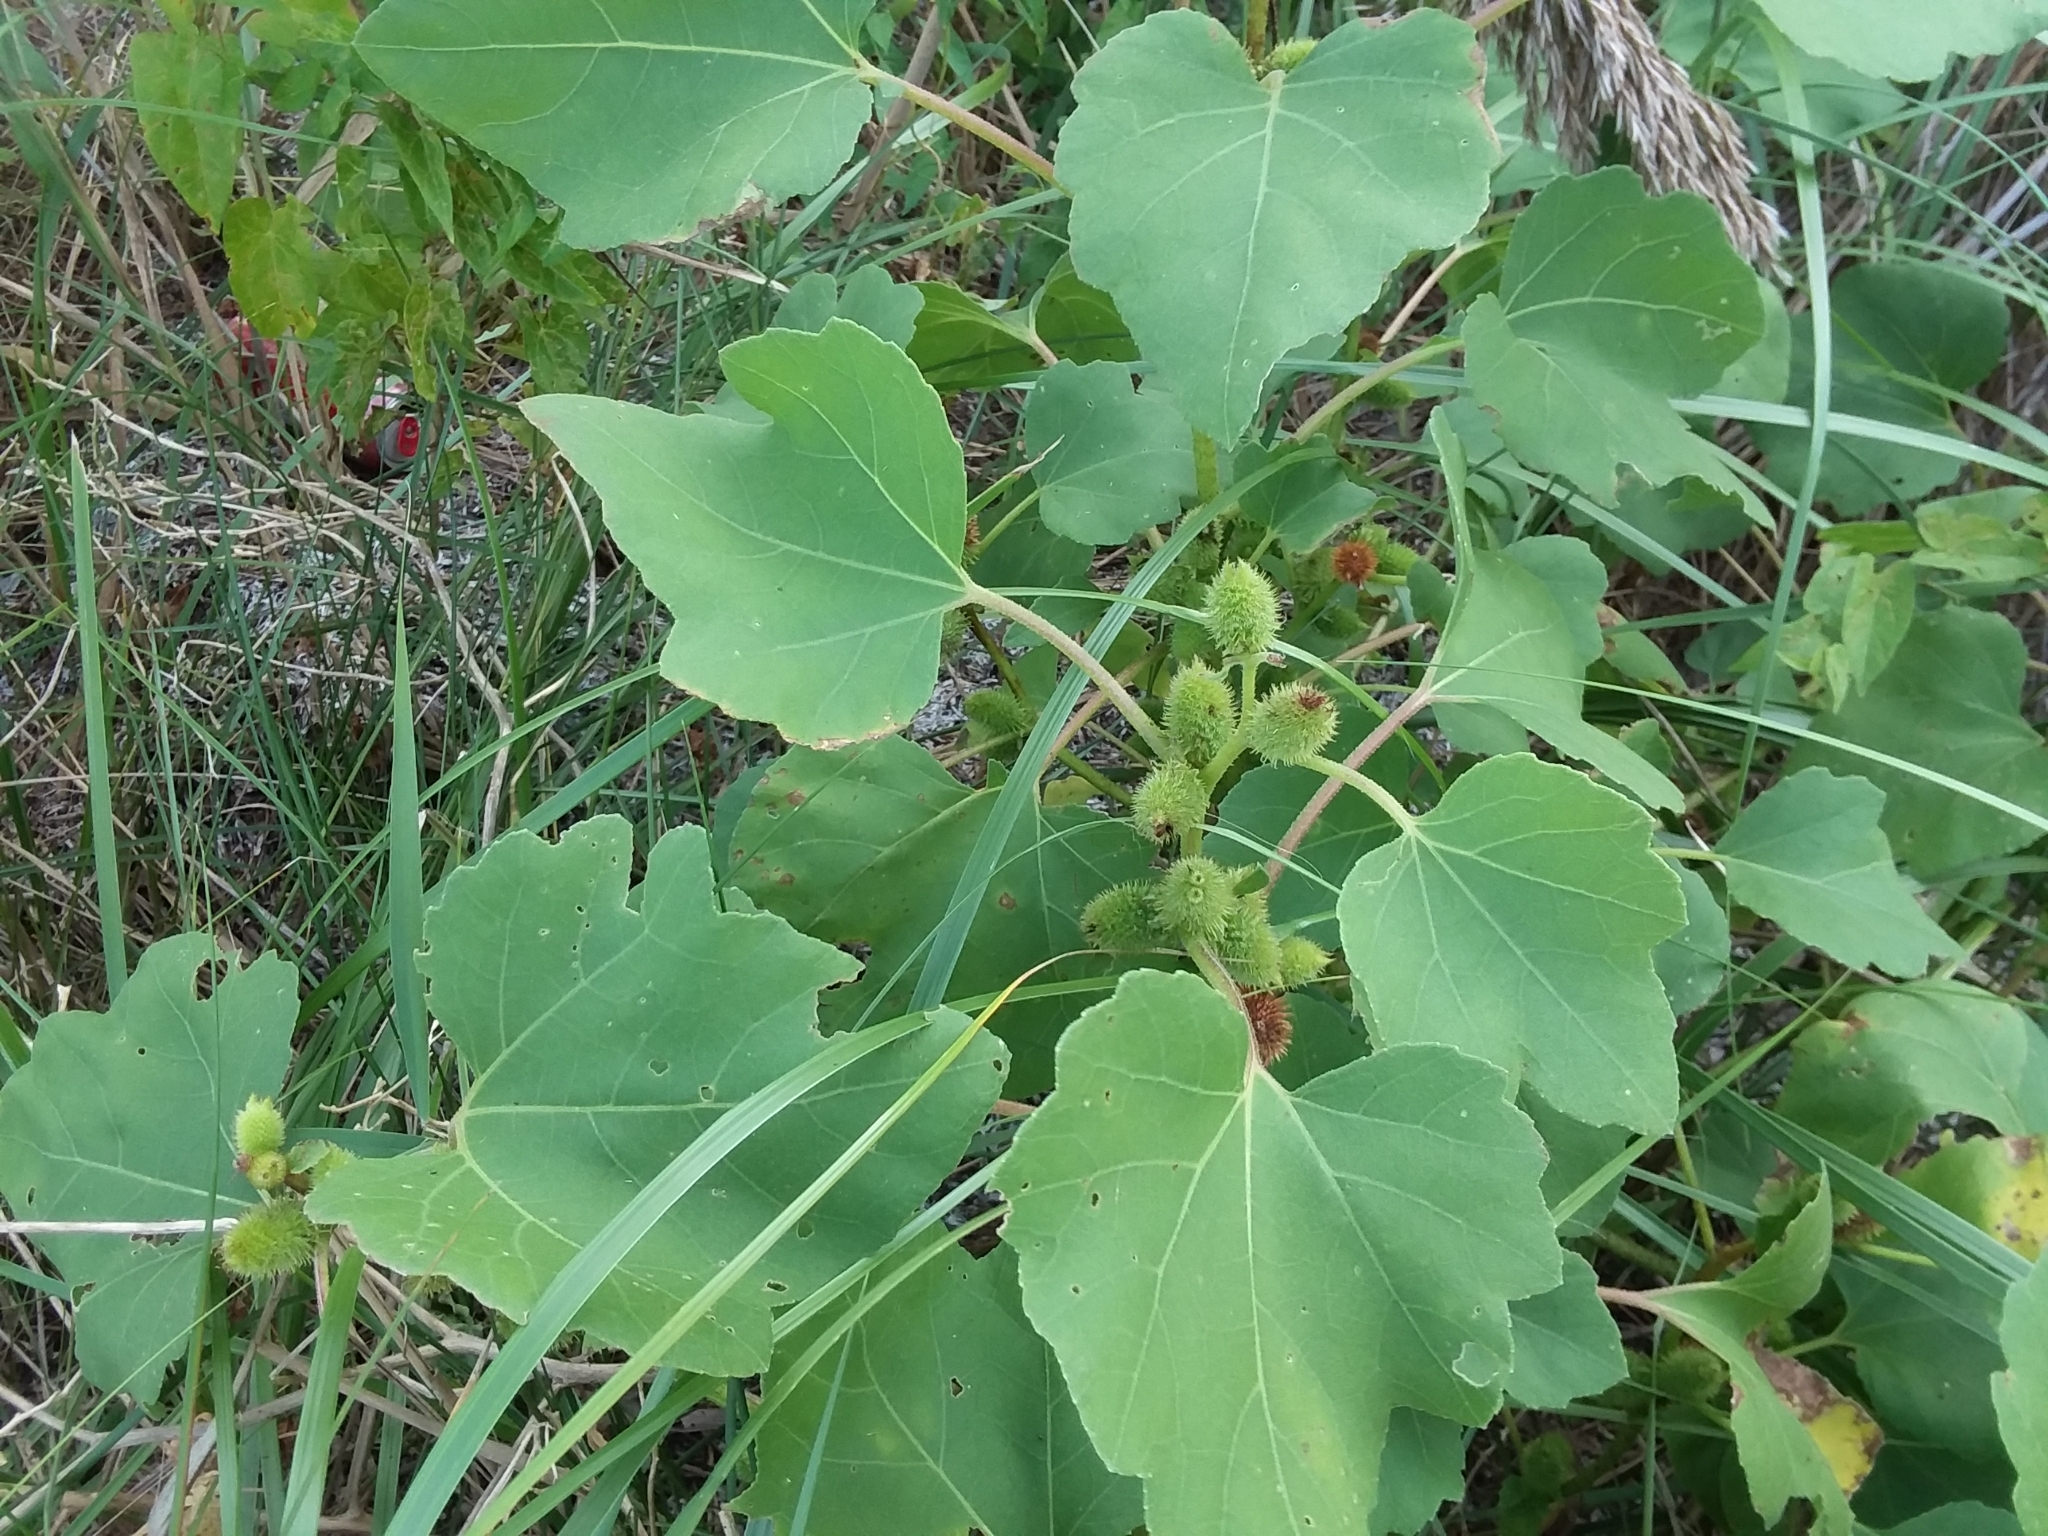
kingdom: Plantae
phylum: Tracheophyta
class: Magnoliopsida
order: Asterales
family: Asteraceae
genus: Xanthium
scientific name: Xanthium strumarium
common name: Rough cocklebur
